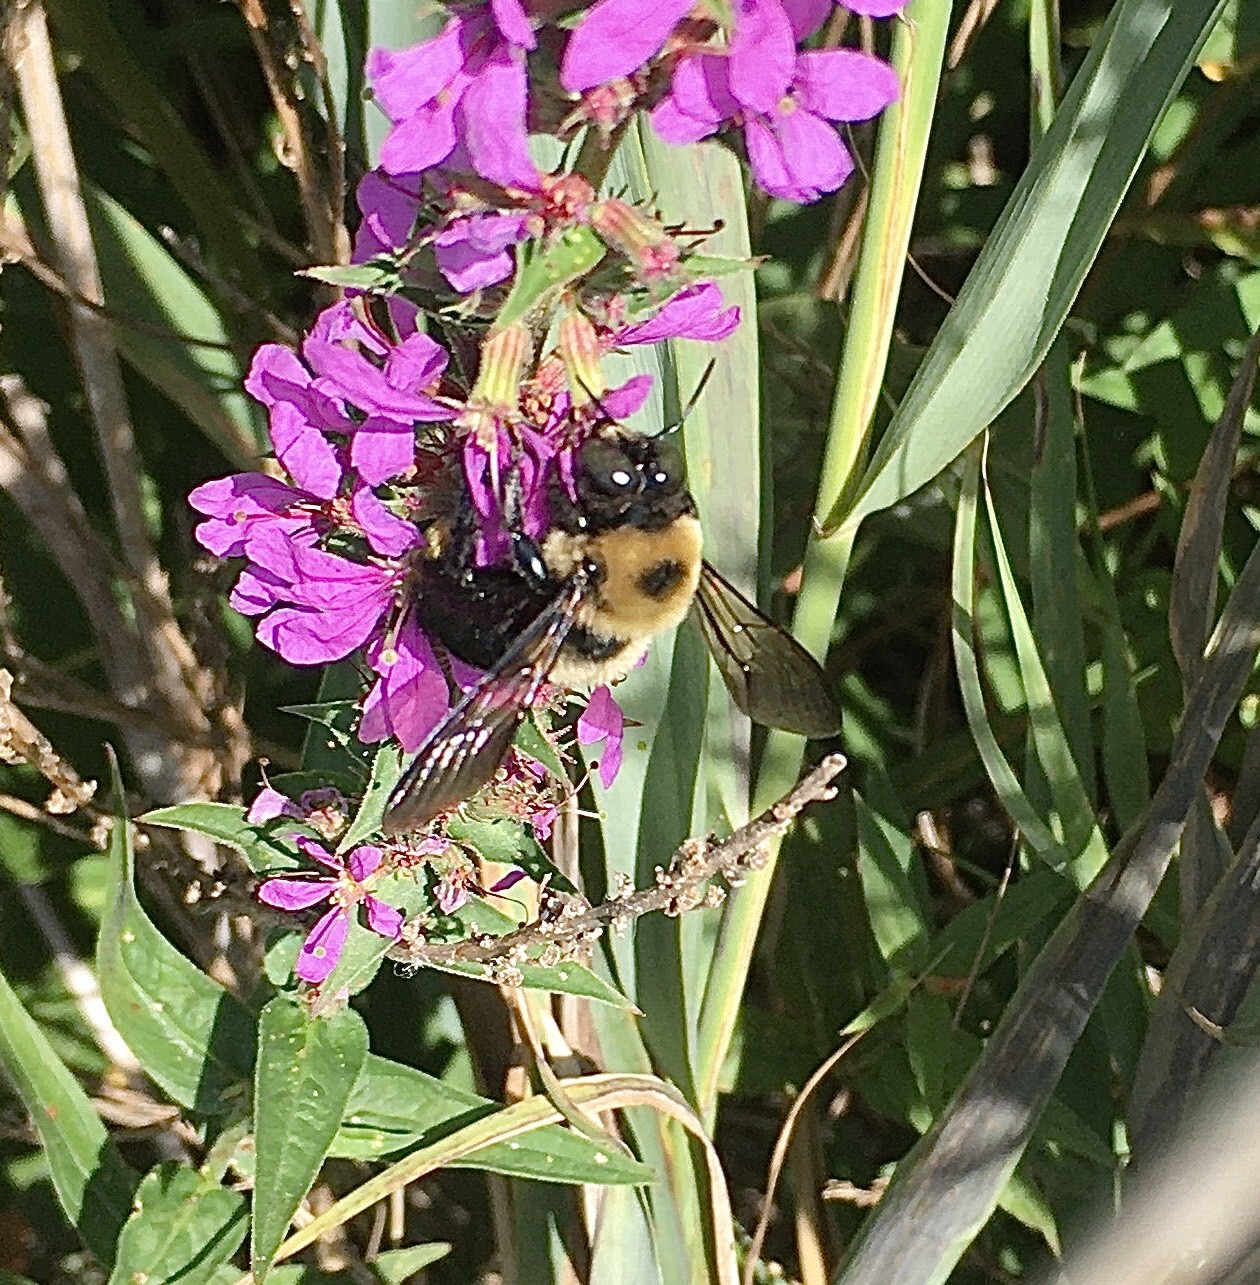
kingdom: Animalia
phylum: Arthropoda
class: Insecta
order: Hymenoptera
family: Apidae
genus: Xylocopa
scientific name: Xylocopa virginica
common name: Carpenter bee
